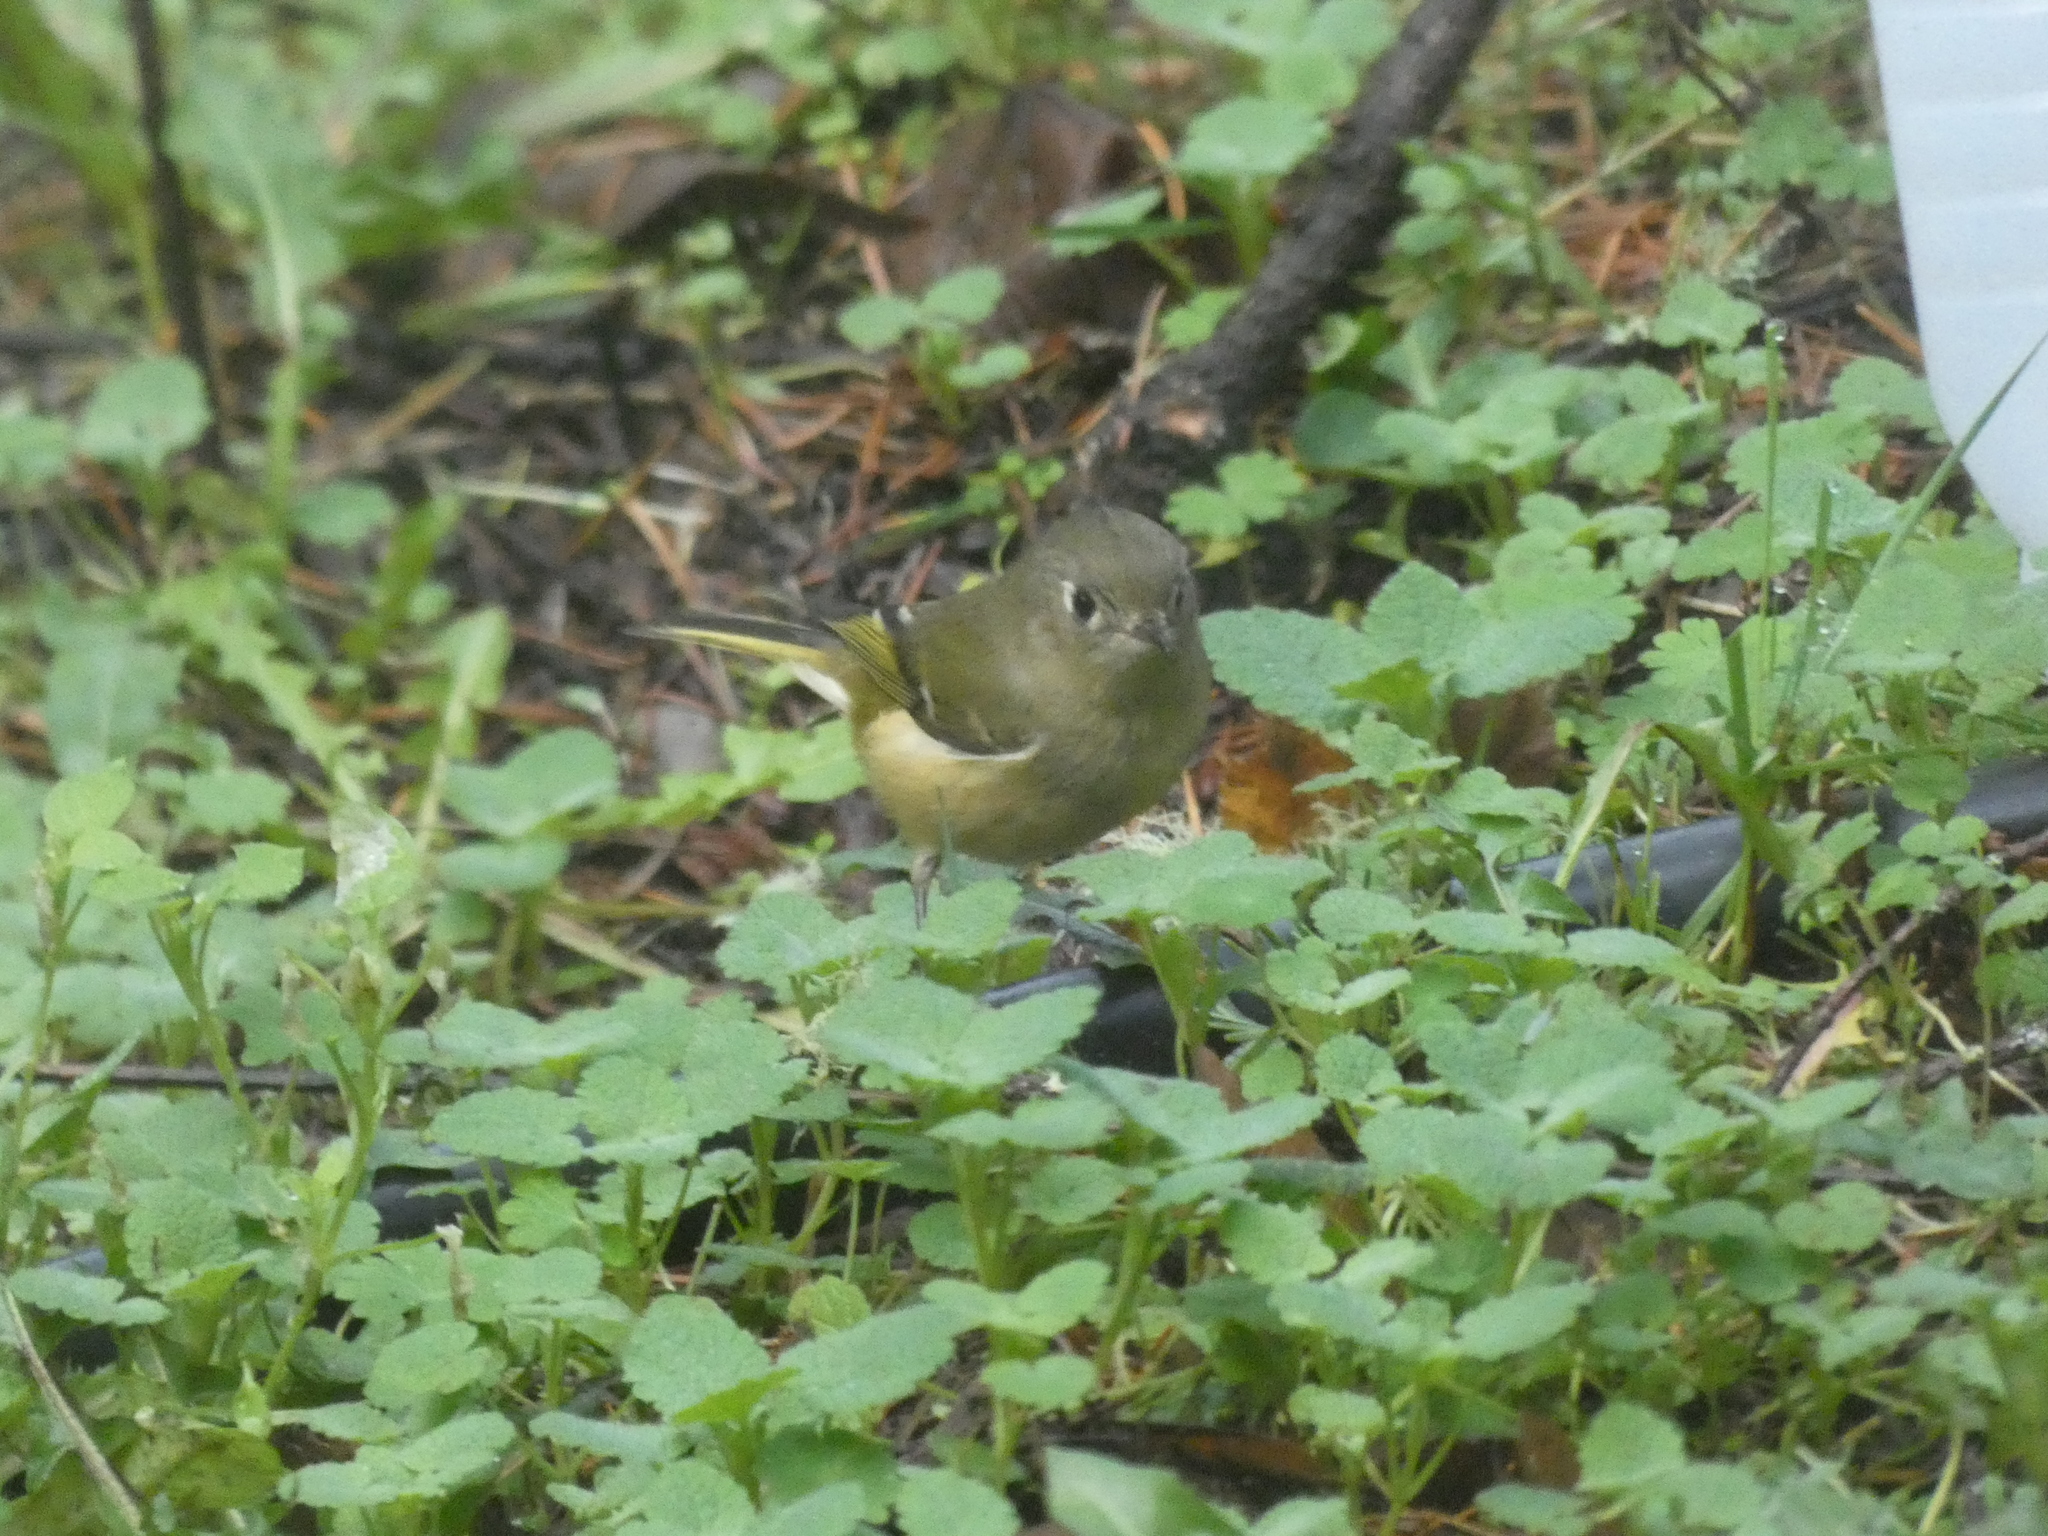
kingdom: Animalia
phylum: Chordata
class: Aves
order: Passeriformes
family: Regulidae
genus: Regulus
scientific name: Regulus calendula
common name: Ruby-crowned kinglet
